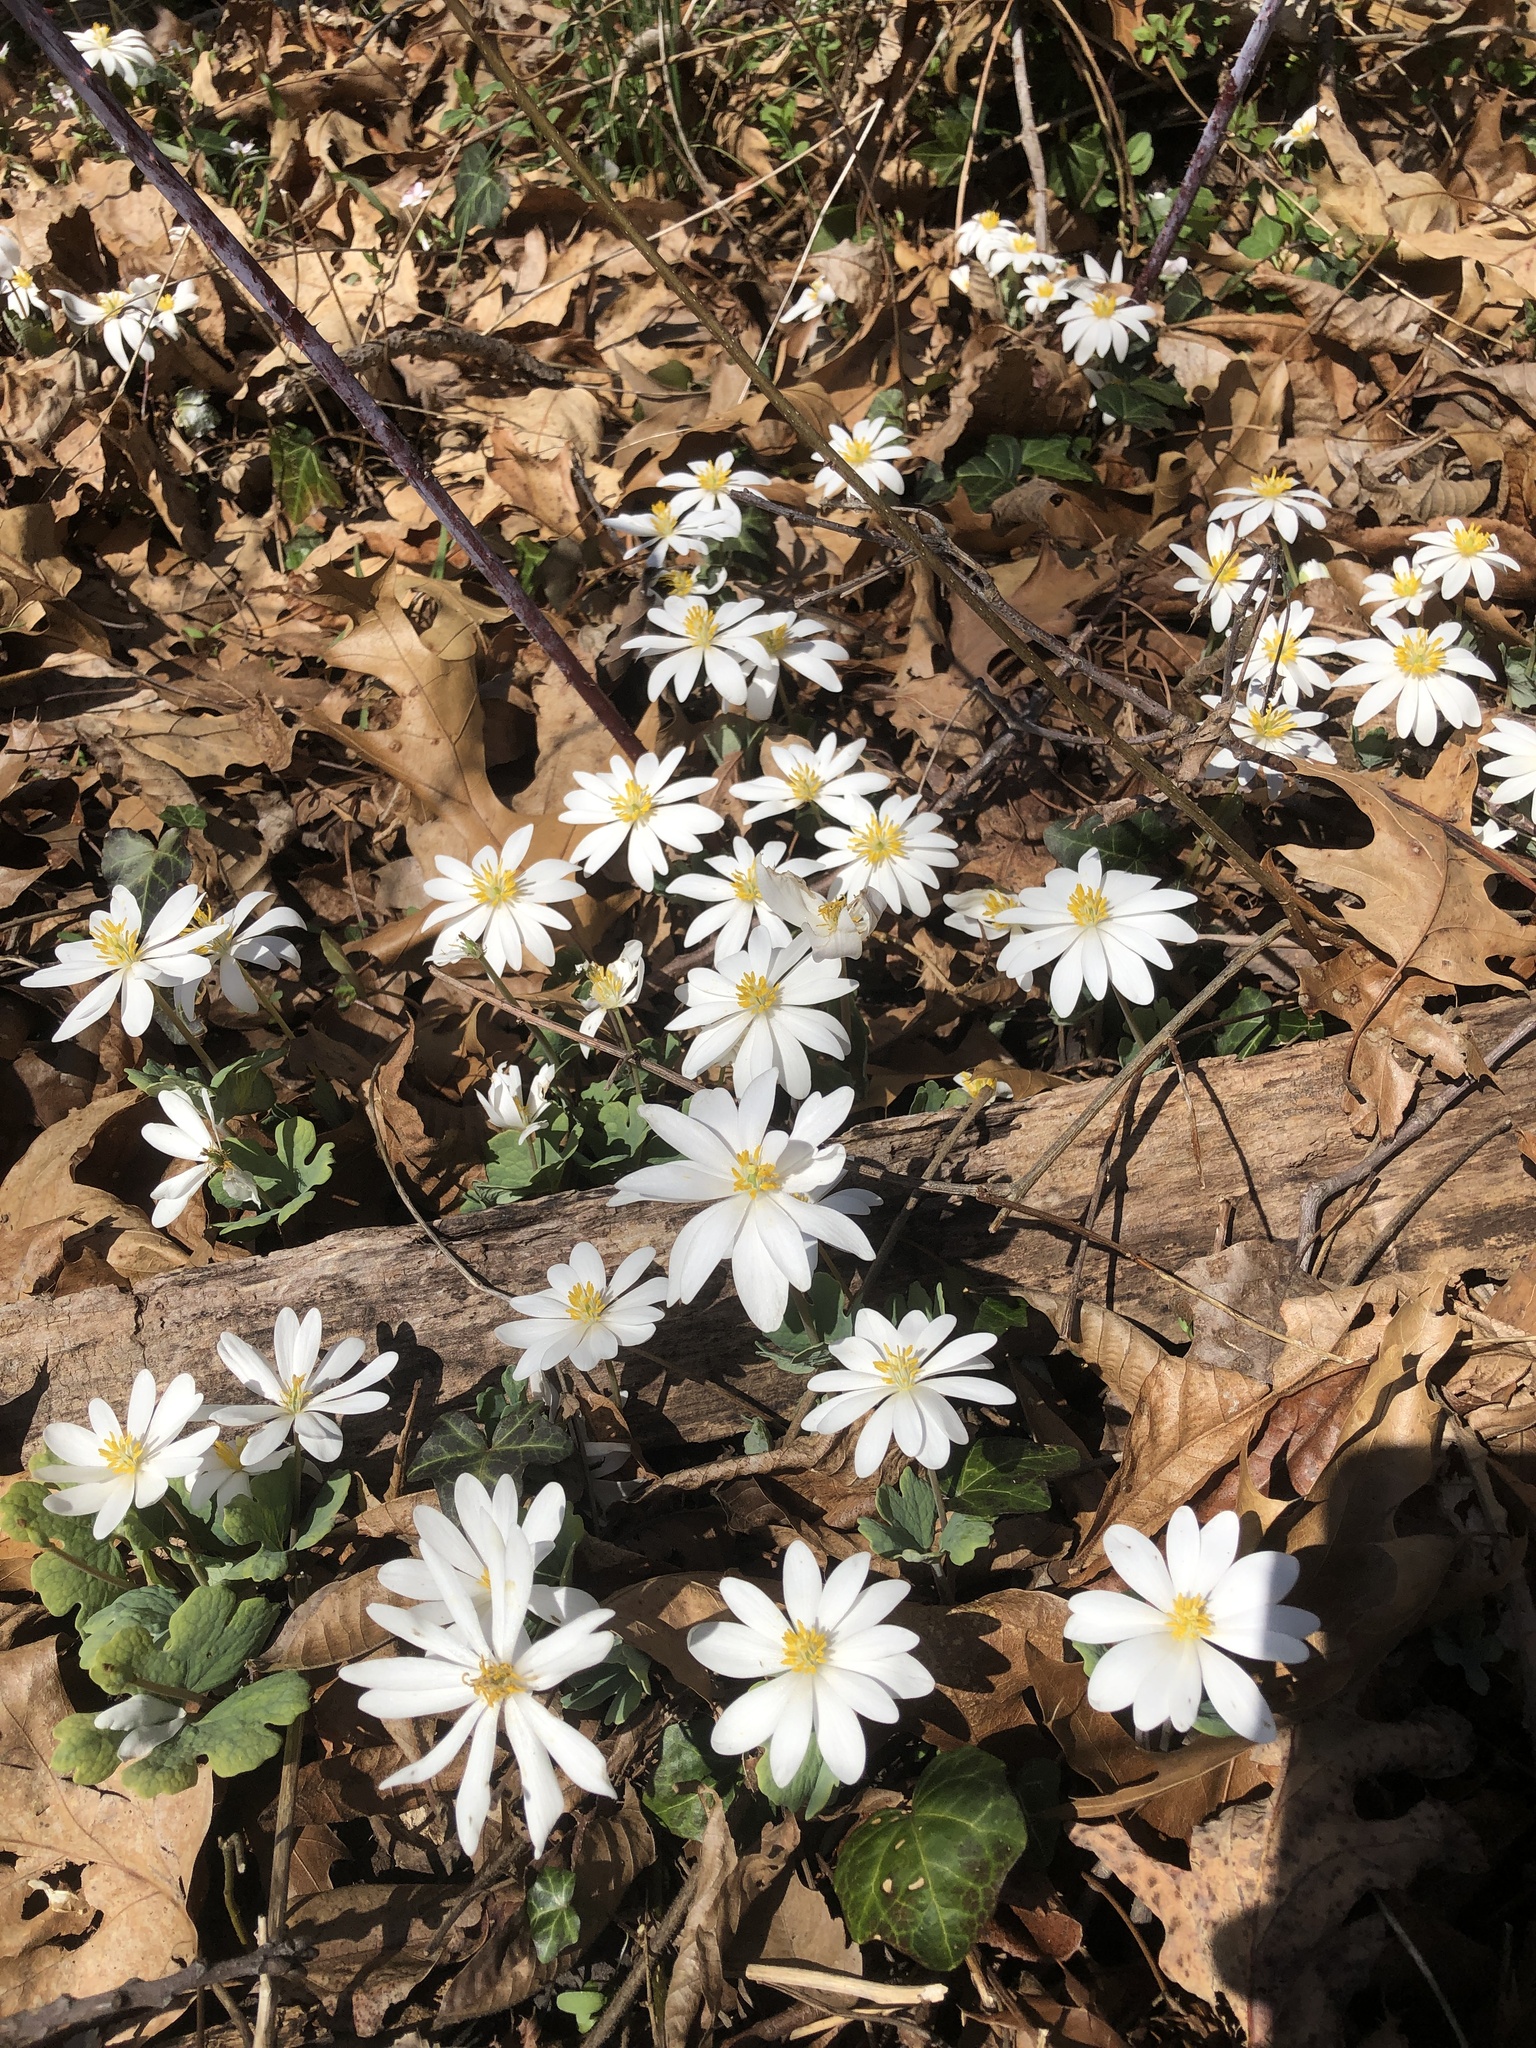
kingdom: Plantae
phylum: Tracheophyta
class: Magnoliopsida
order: Ranunculales
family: Papaveraceae
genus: Sanguinaria
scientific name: Sanguinaria canadensis
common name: Bloodroot
